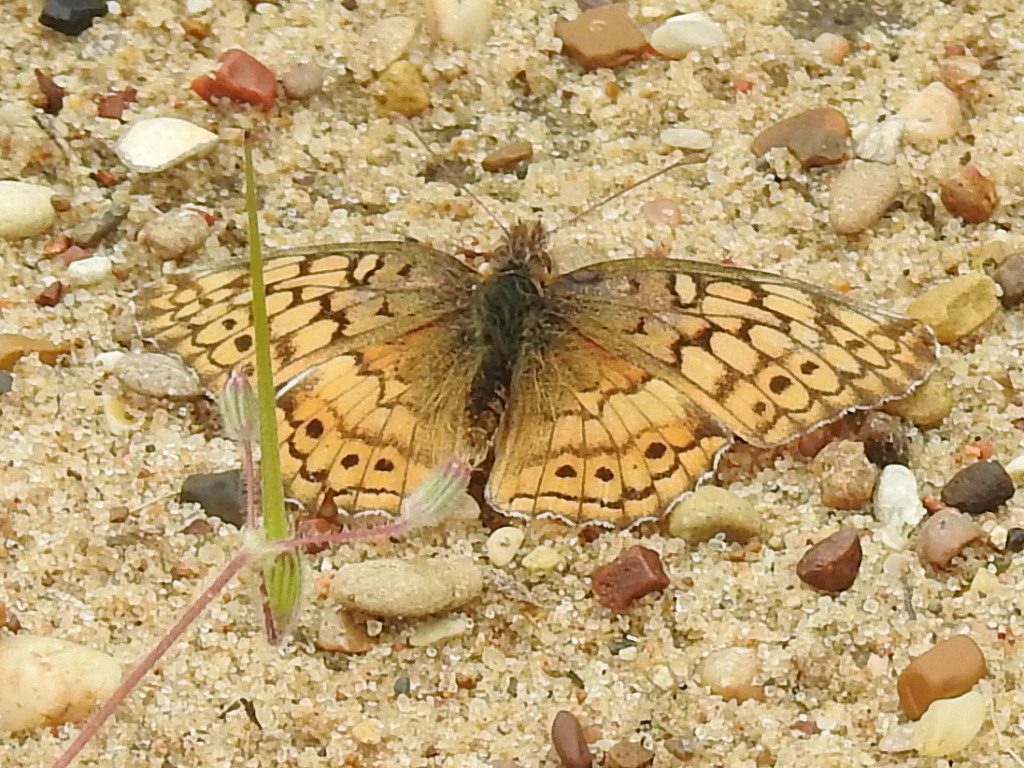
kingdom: Animalia
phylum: Arthropoda
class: Insecta
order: Lepidoptera
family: Nymphalidae
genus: Euptoieta
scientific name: Euptoieta claudia
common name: Variegated fritillary
